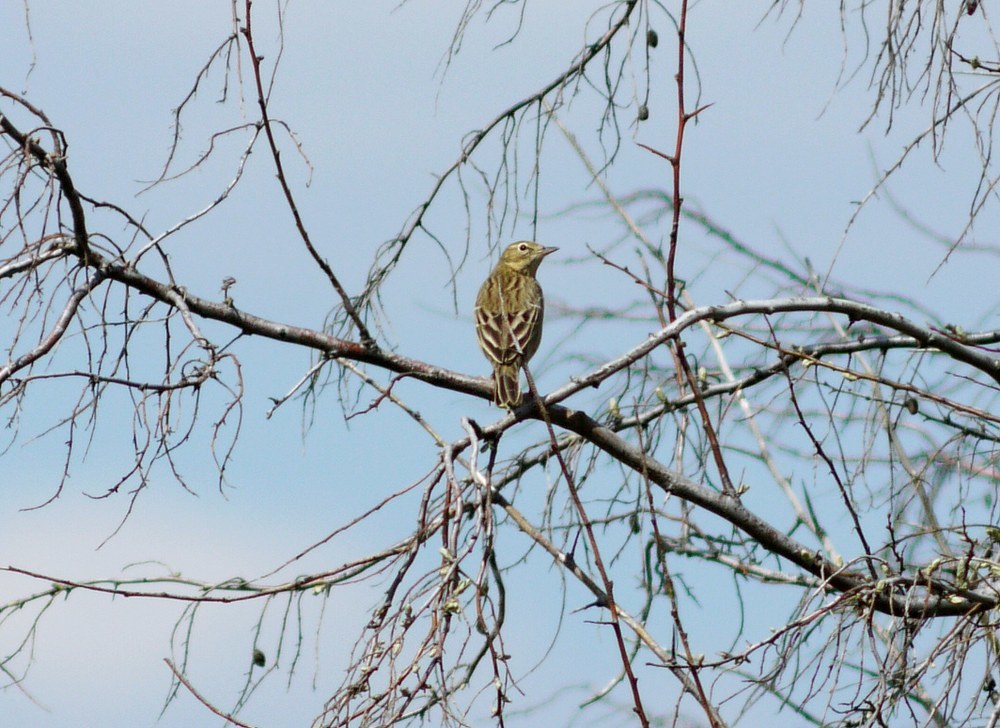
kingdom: Animalia
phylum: Chordata
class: Aves
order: Passeriformes
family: Motacillidae
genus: Anthus
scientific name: Anthus trivialis
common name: Tree pipit
